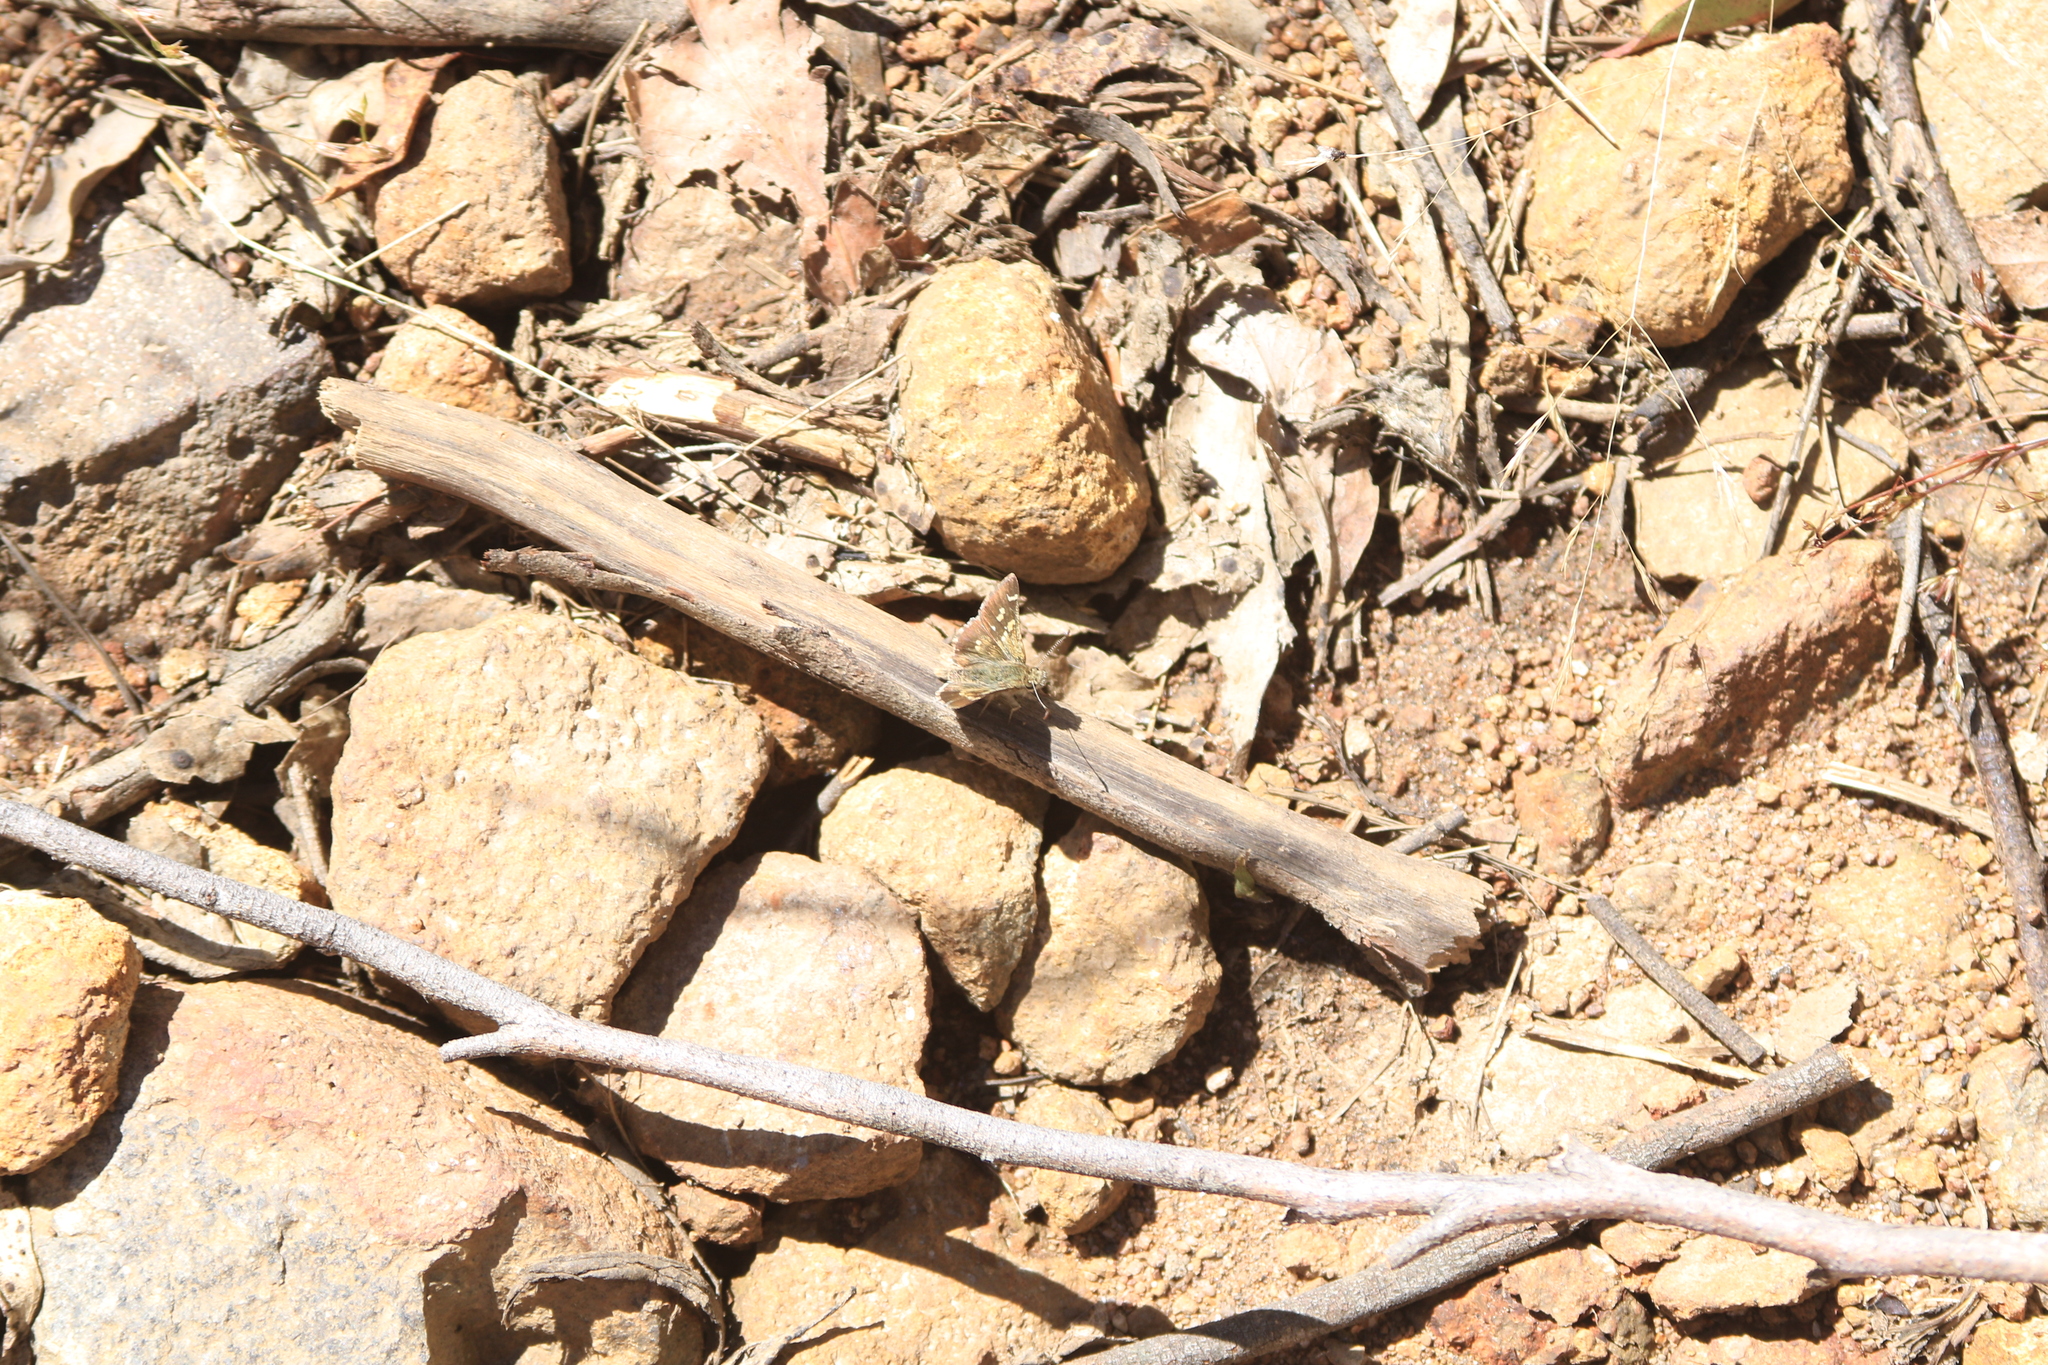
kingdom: Animalia
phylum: Arthropoda
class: Insecta
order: Lepidoptera
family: Hesperiidae
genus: Pasma
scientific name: Pasma tasmanicus
